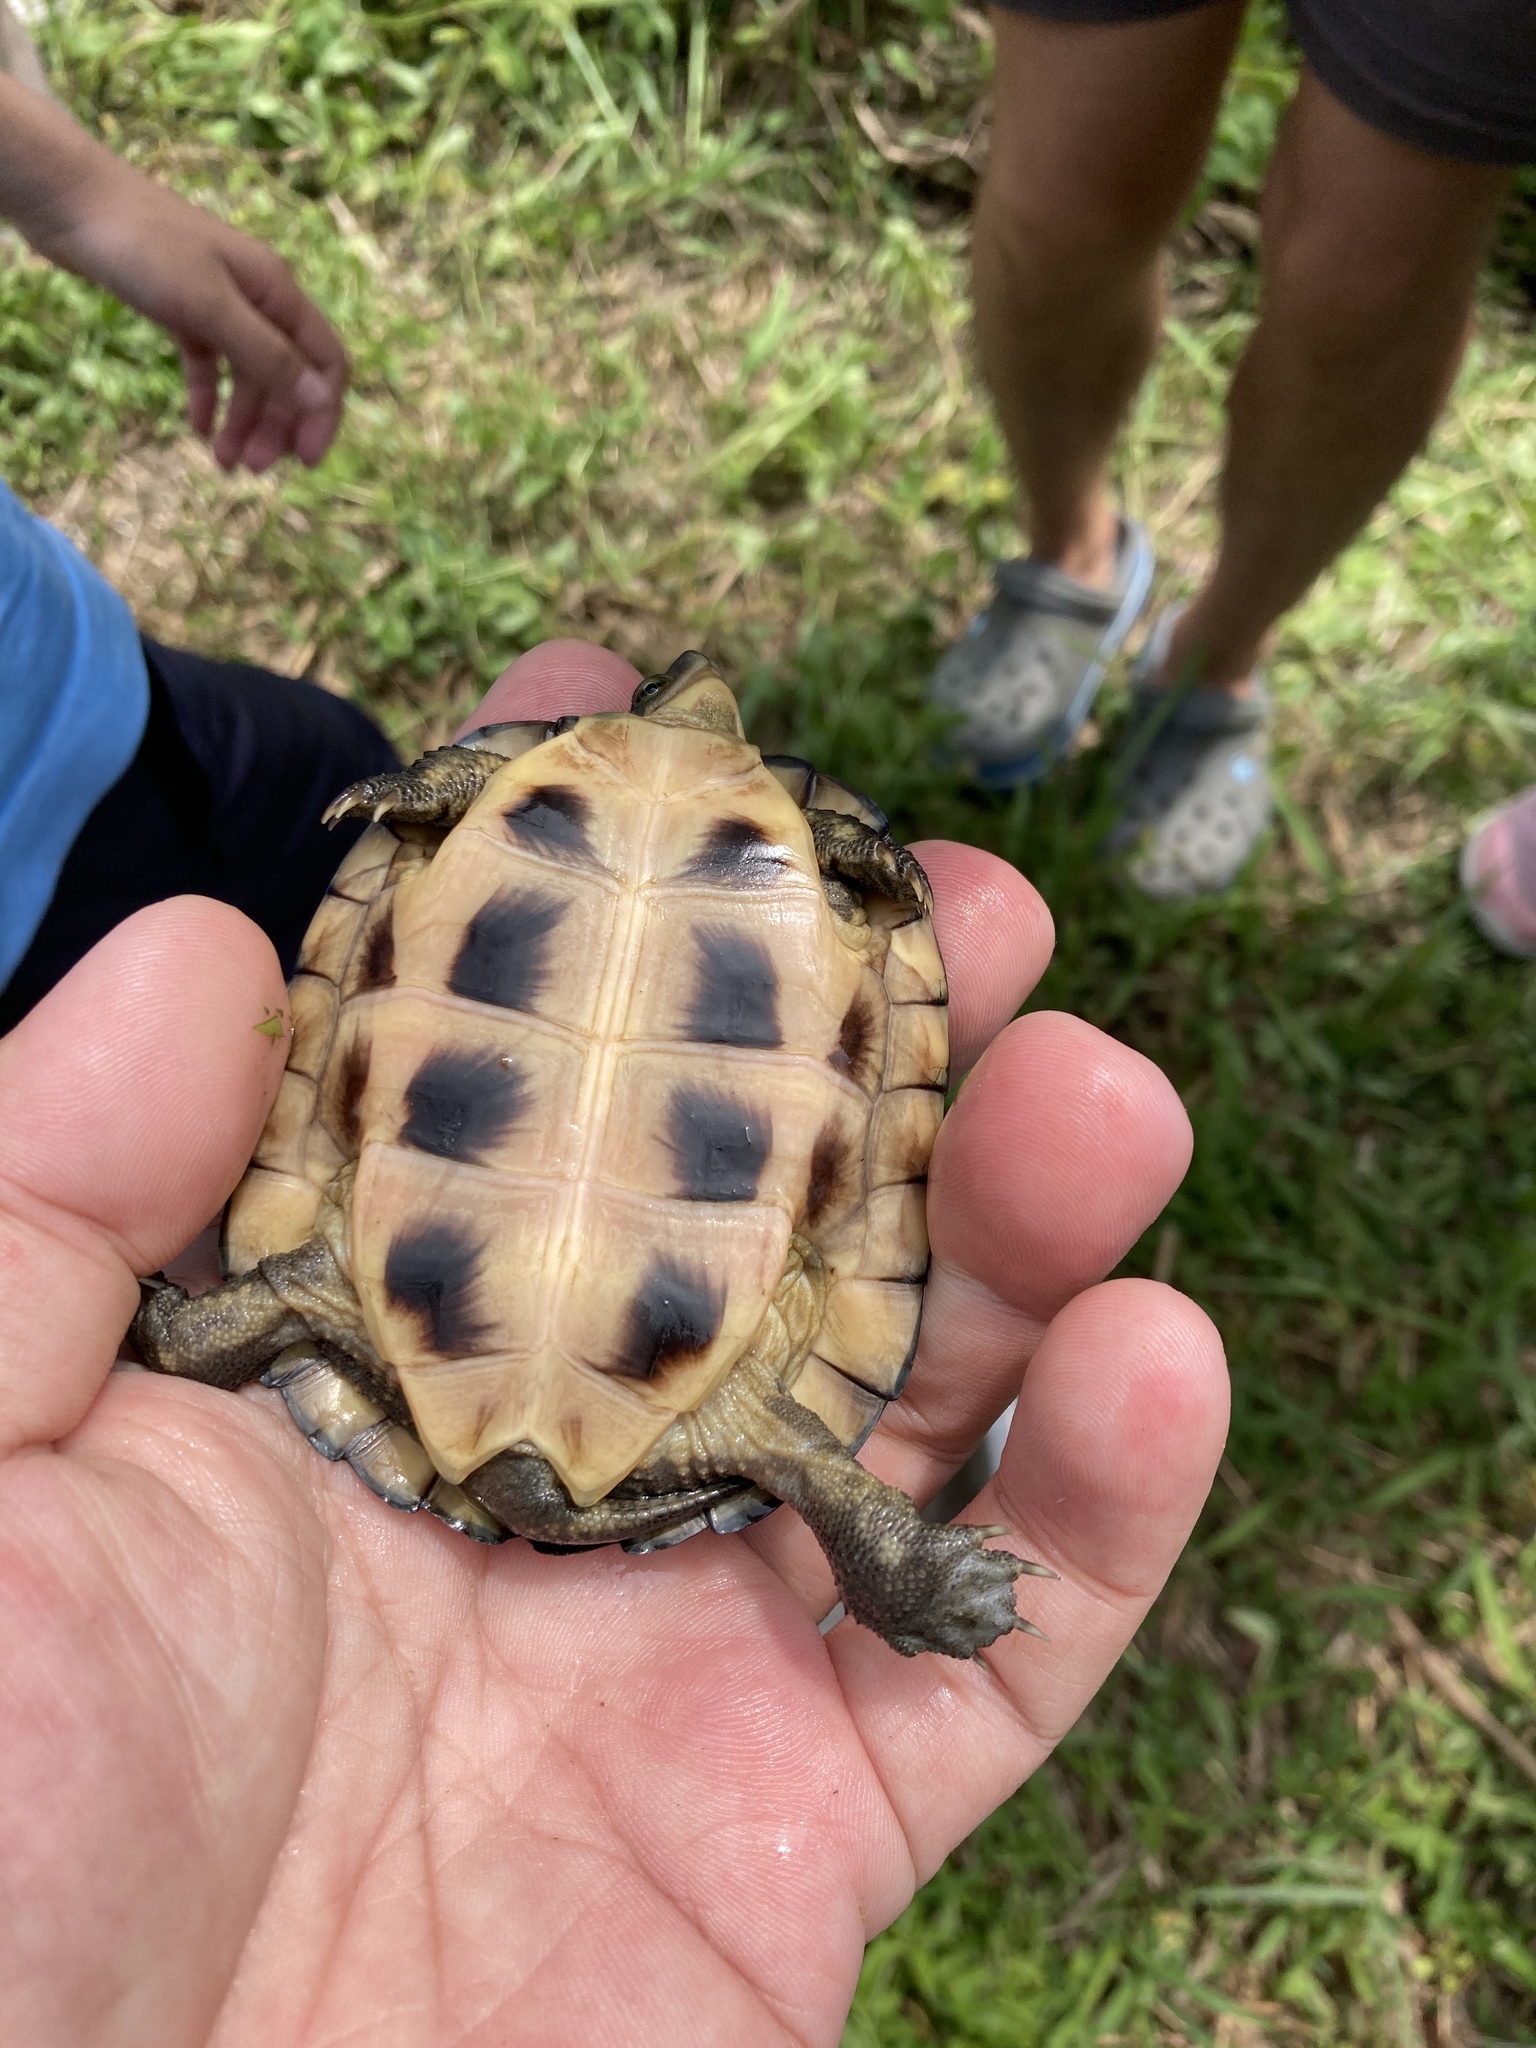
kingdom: Animalia
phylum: Chordata
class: Testudines
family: Geoemydidae
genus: Mauremys
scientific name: Mauremys mutica
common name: Yellow pond turtle
